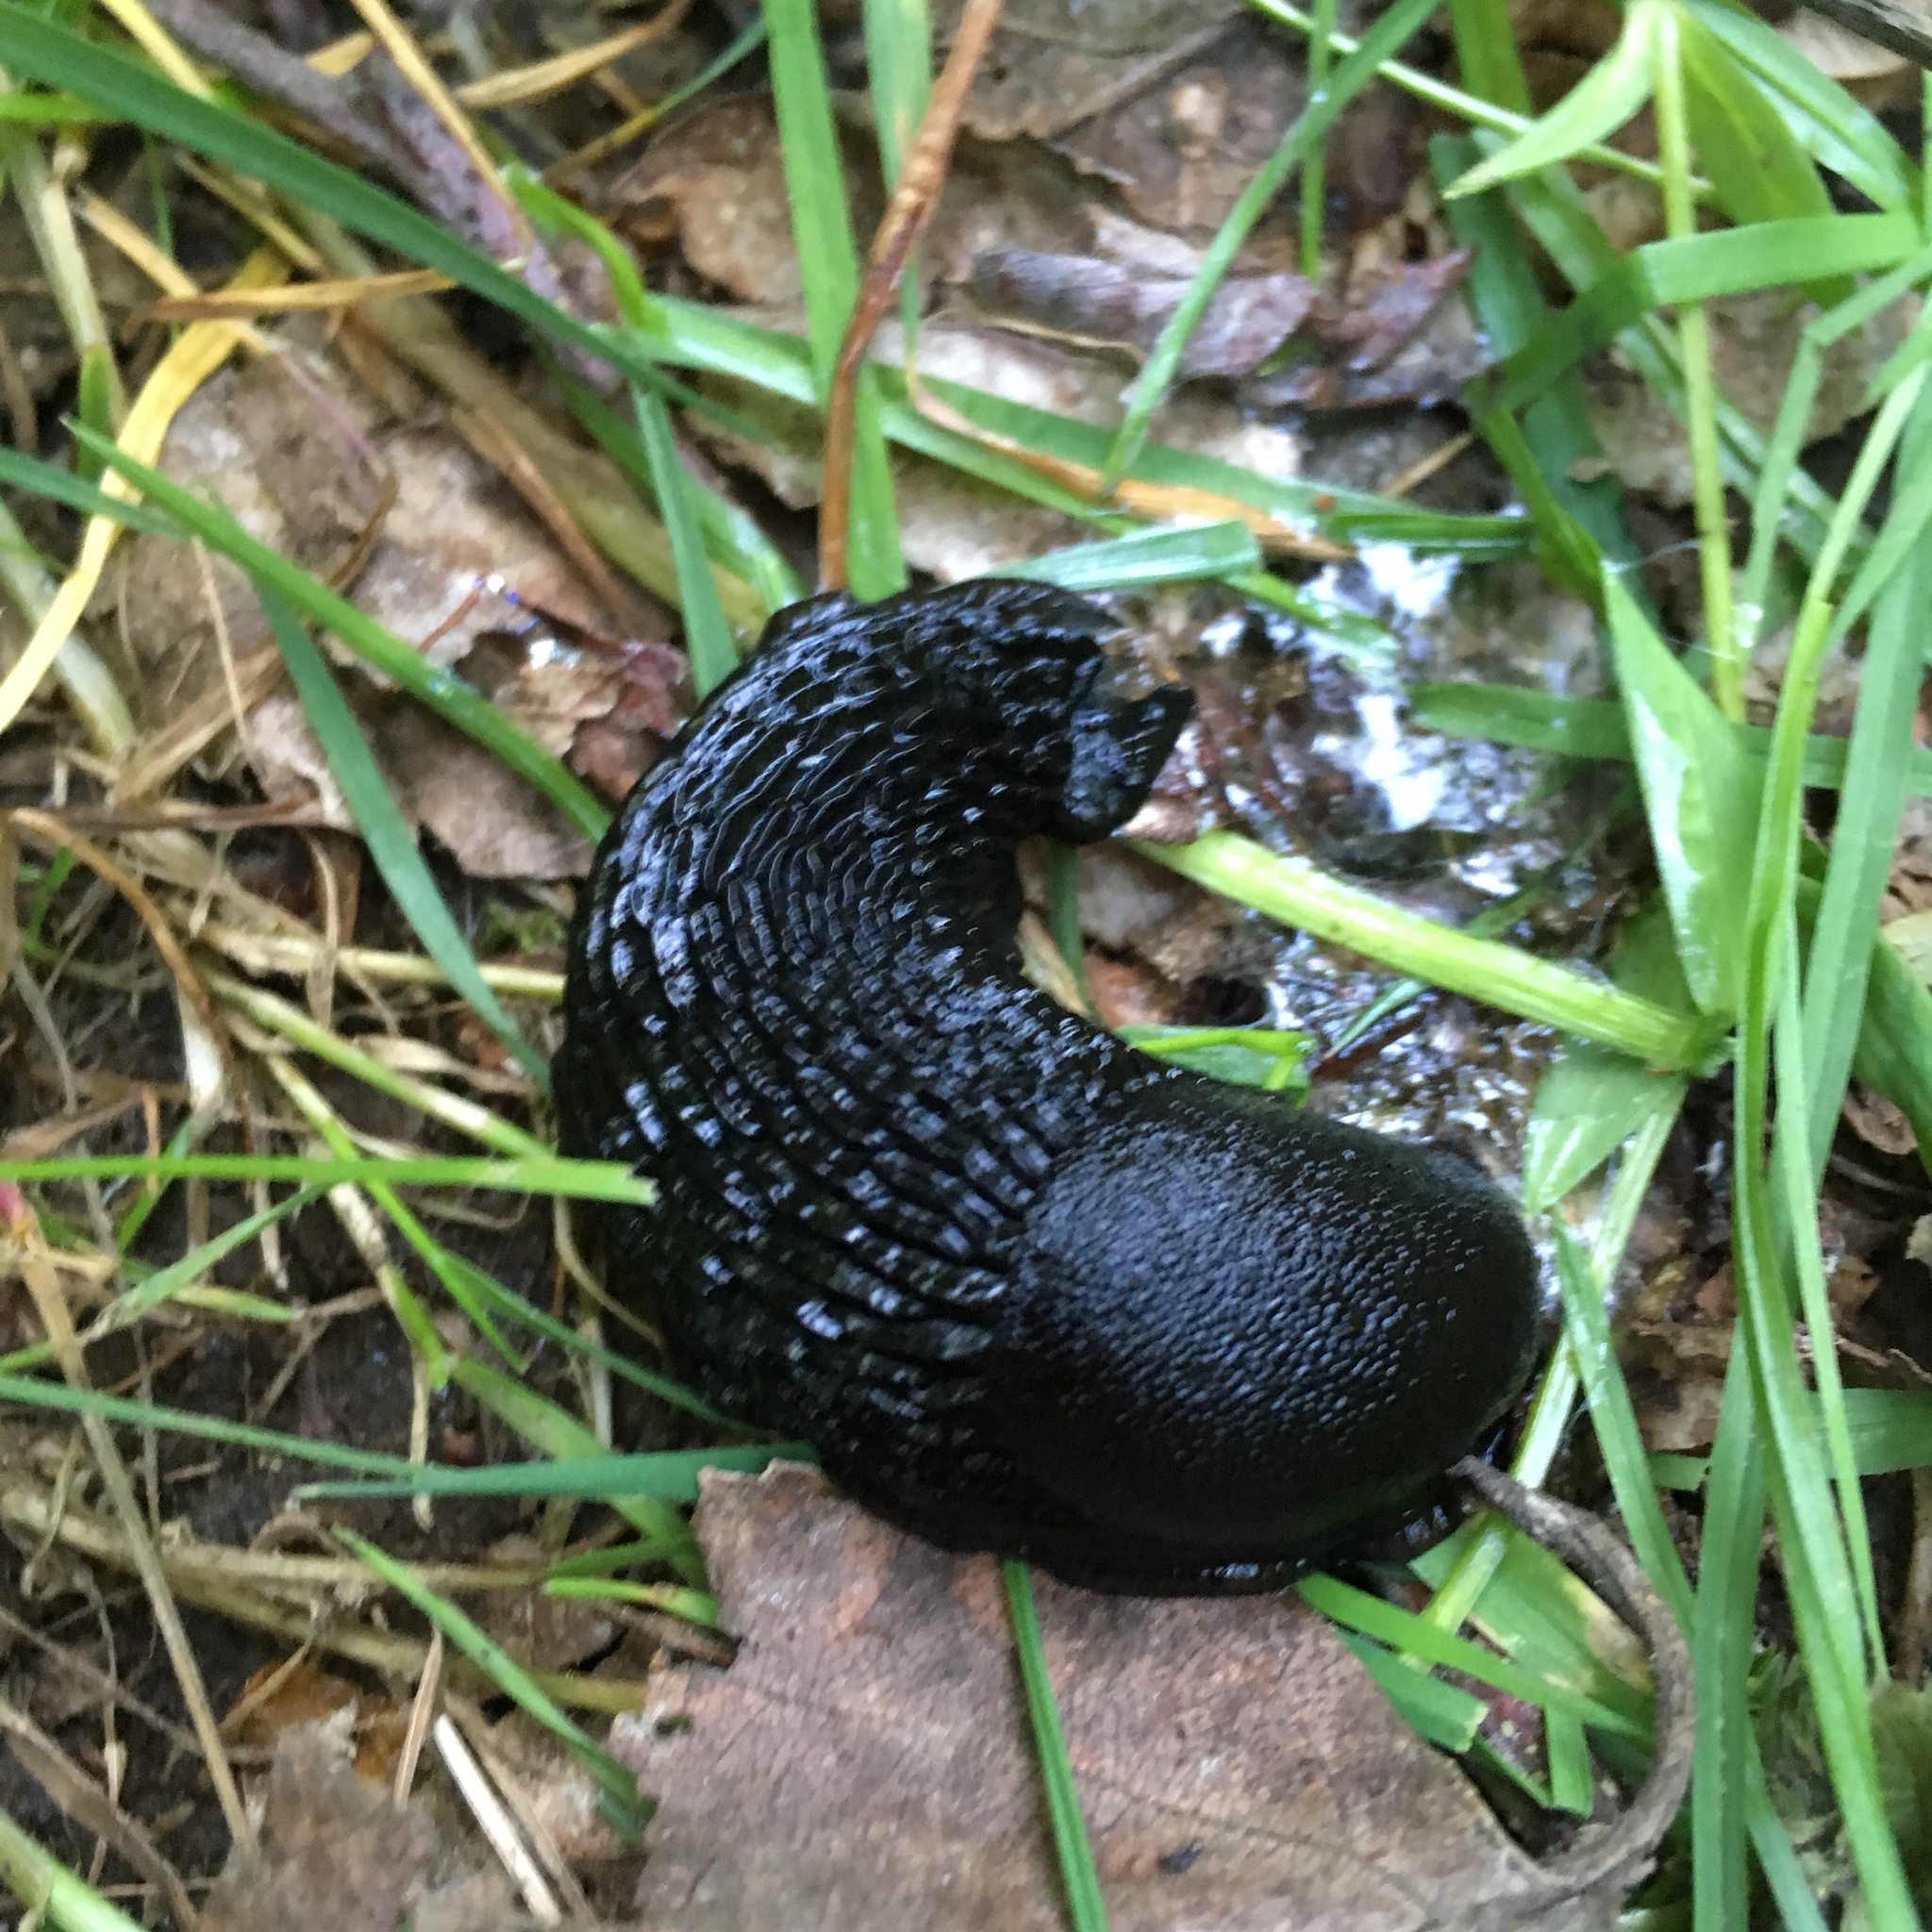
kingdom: Animalia
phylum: Mollusca
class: Gastropoda
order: Stylommatophora
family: Arionidae
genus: Arion
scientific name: Arion
